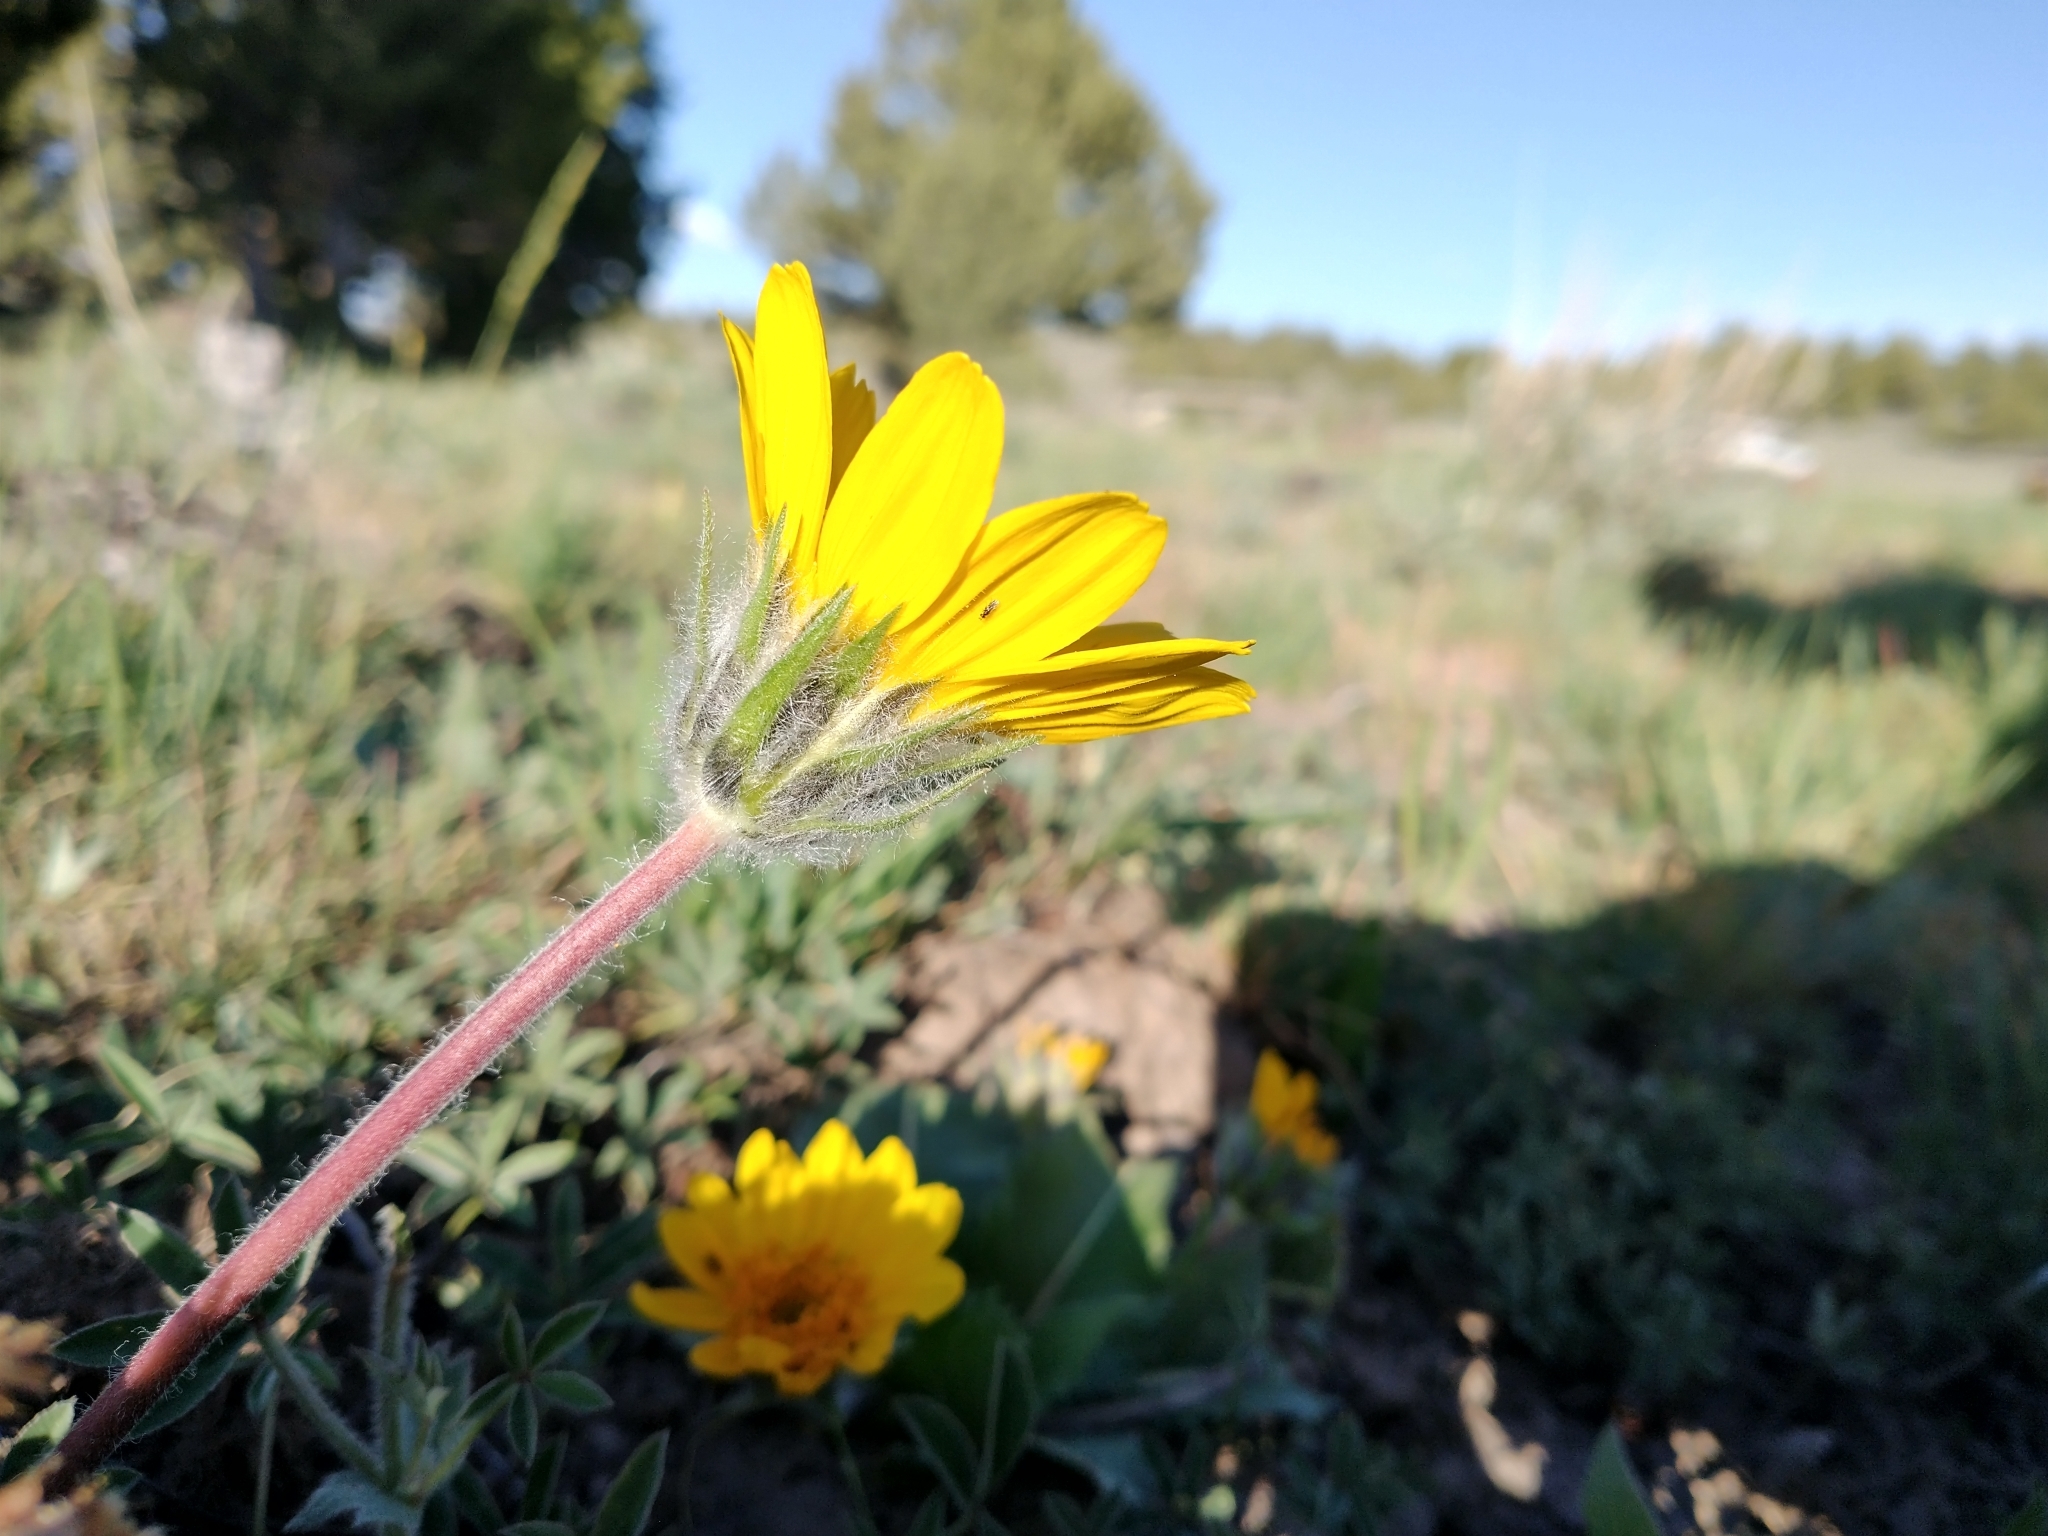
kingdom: Plantae
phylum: Tracheophyta
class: Magnoliopsida
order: Asterales
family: Asteraceae
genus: Balsamorhiza
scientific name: Balsamorhiza serrata
